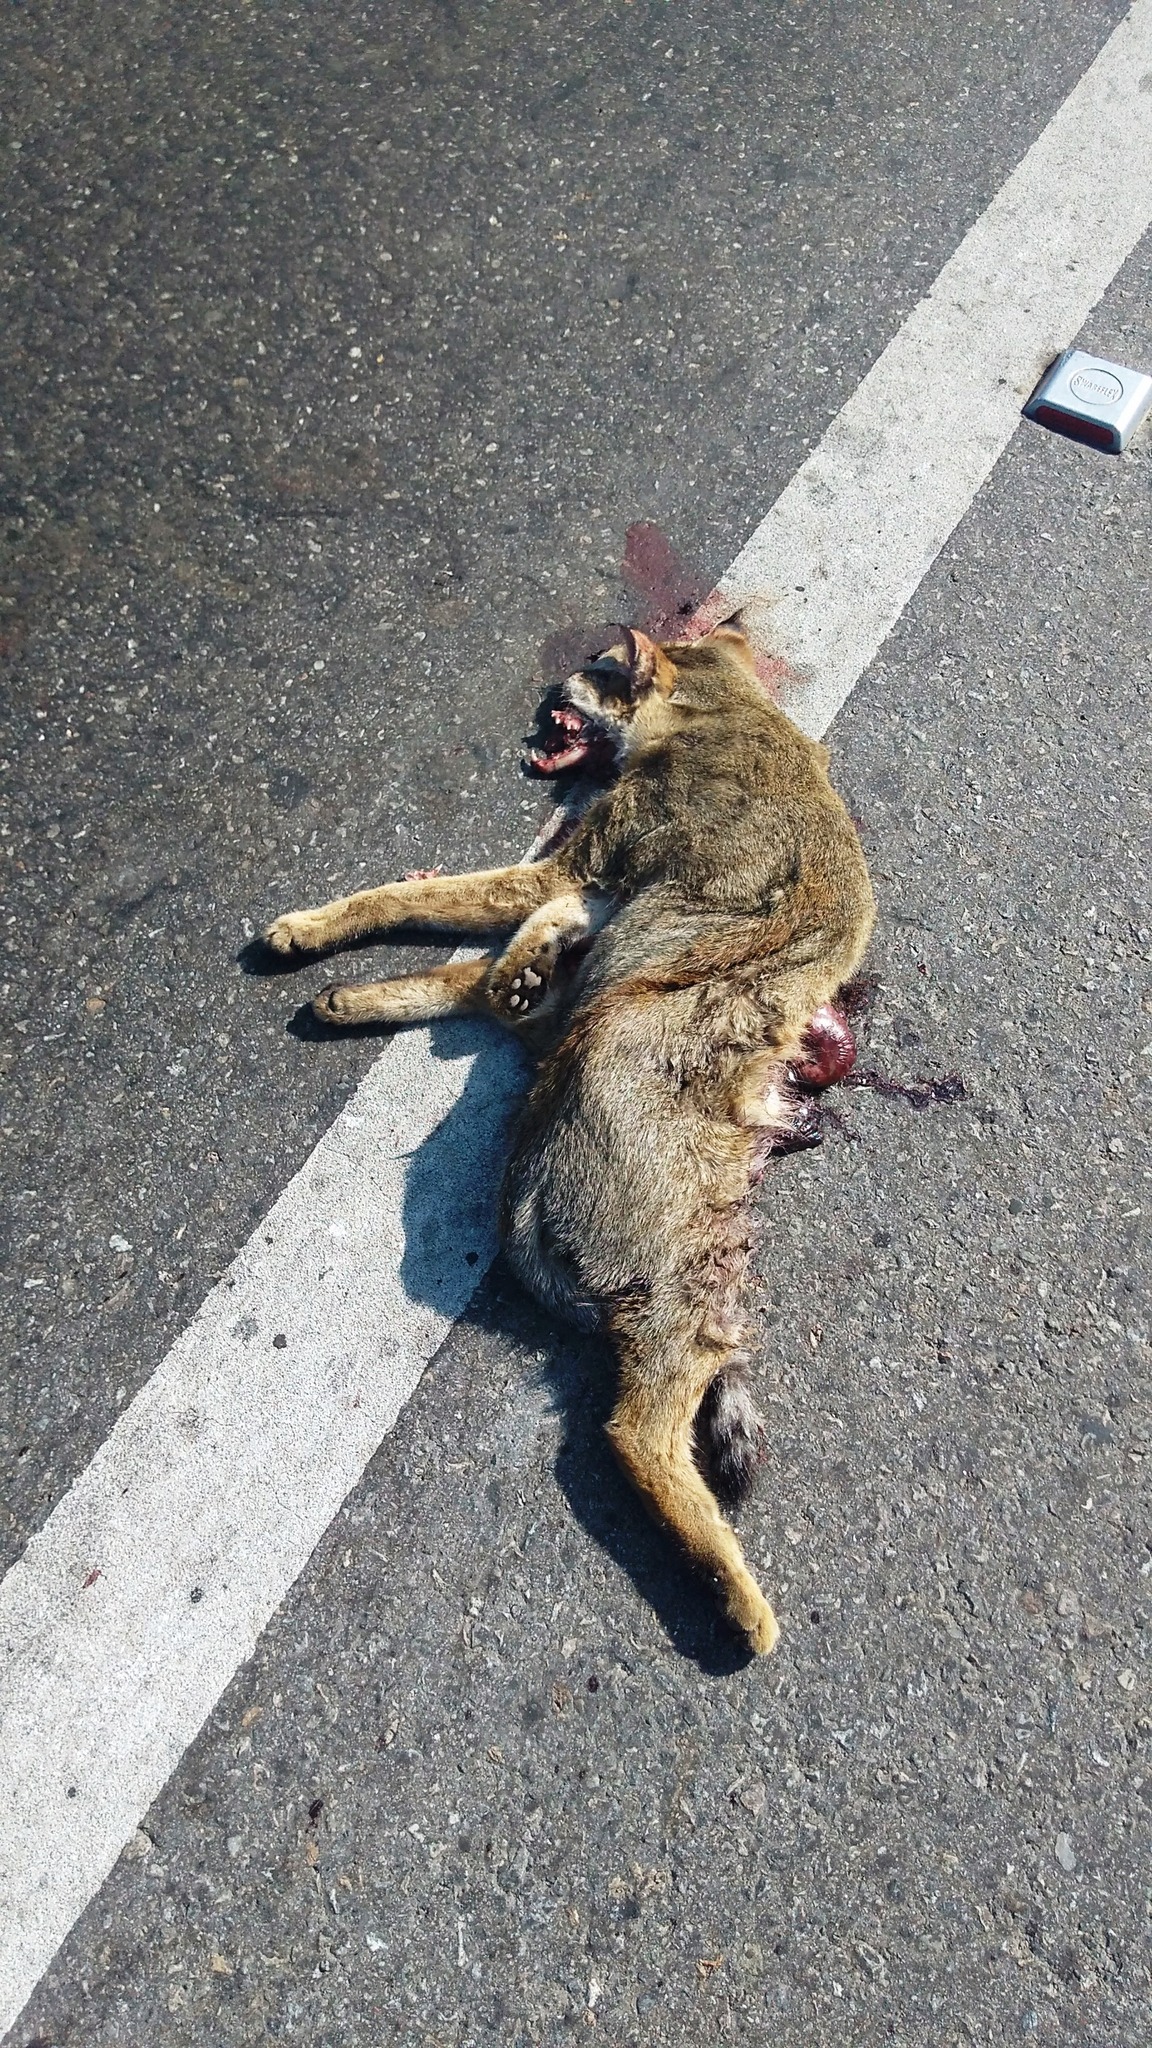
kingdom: Animalia
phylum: Chordata
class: Mammalia
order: Carnivora
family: Canidae
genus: Canis
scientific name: Canis aureus
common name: Golden jackal
